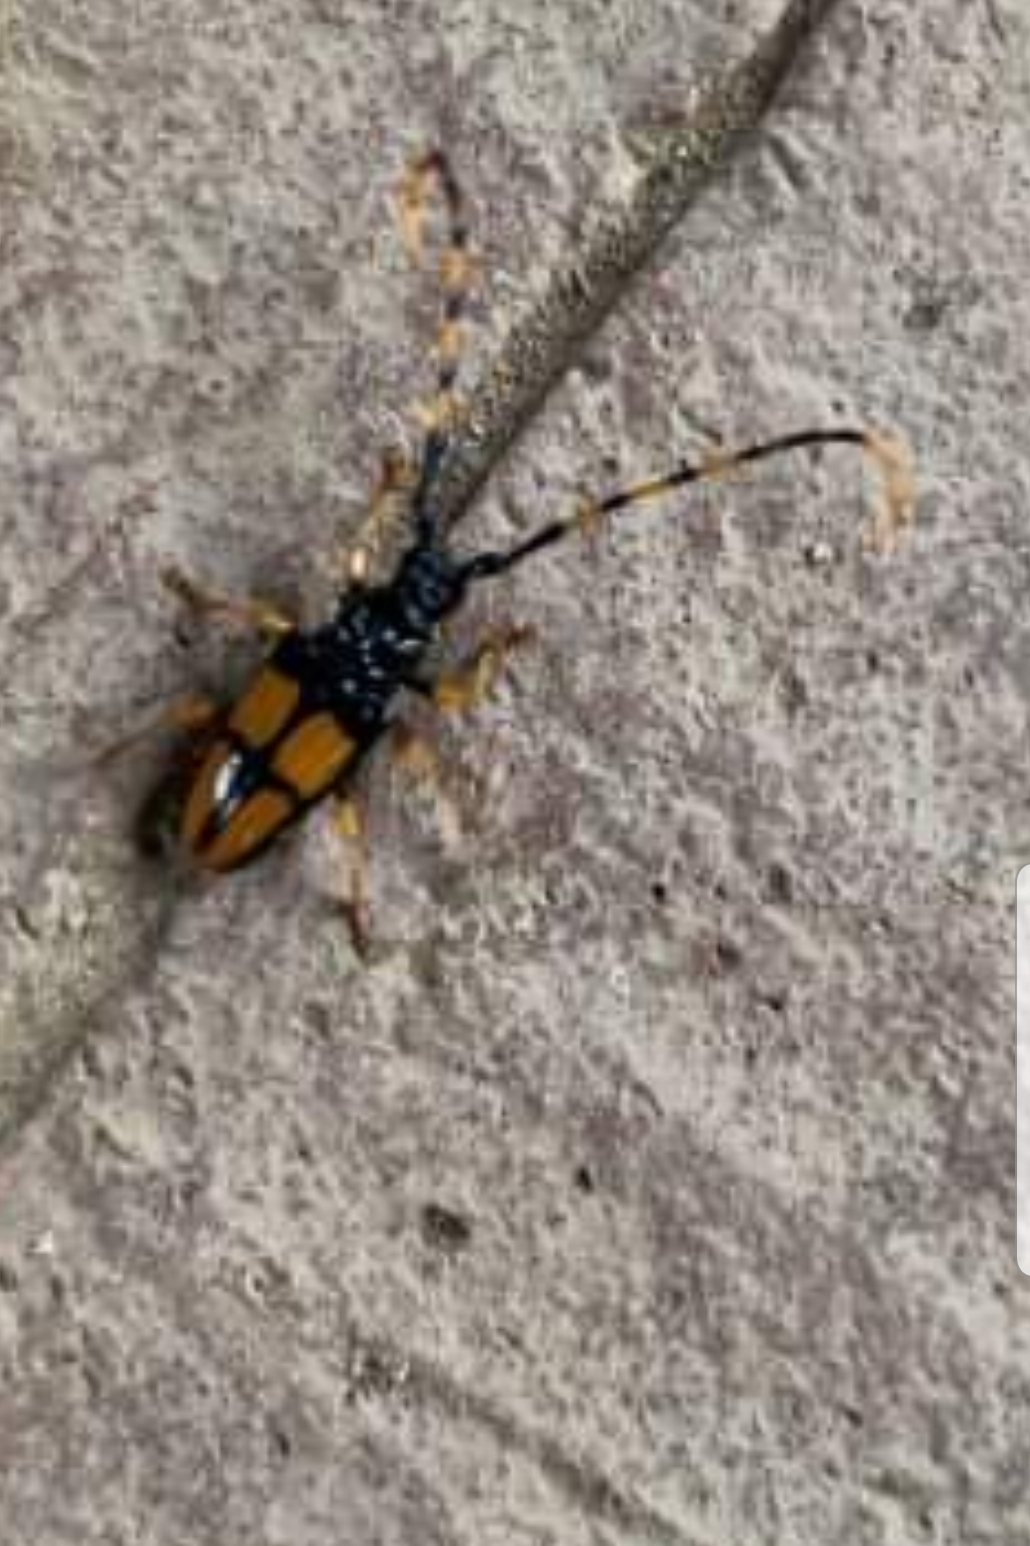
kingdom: Animalia
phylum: Arthropoda
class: Insecta
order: Coleoptera
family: Cerambycidae
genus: Trachyderes
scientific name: Trachyderes mandibularis
